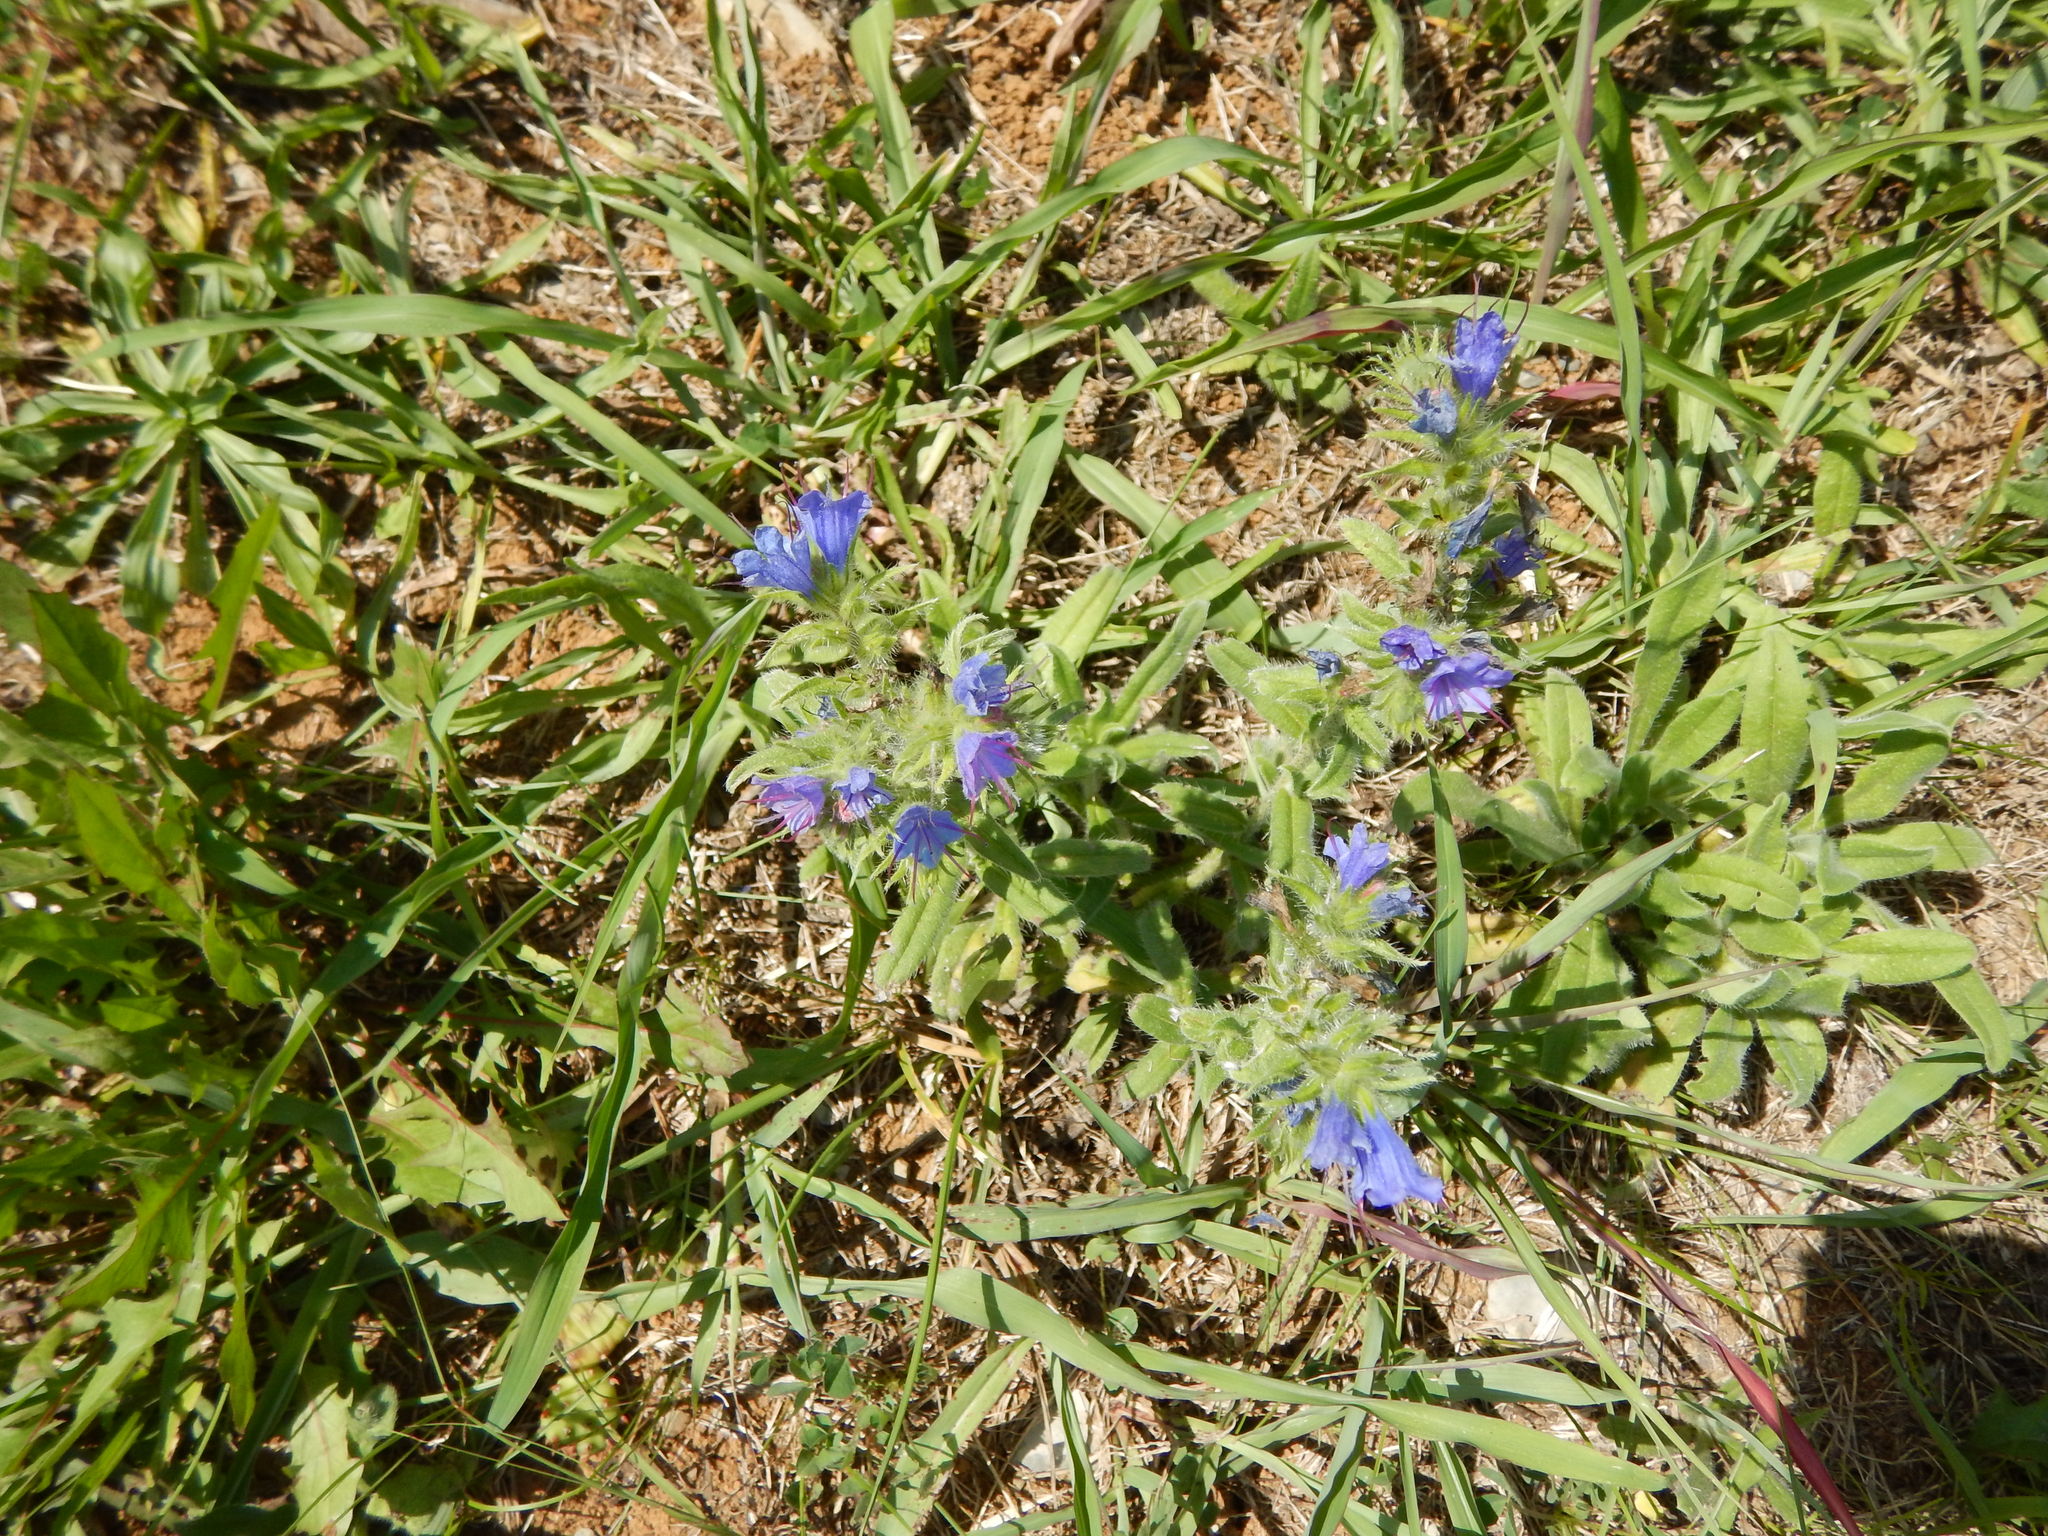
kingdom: Plantae
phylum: Tracheophyta
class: Magnoliopsida
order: Boraginales
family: Boraginaceae
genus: Echium
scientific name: Echium vulgare
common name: Common viper's bugloss
